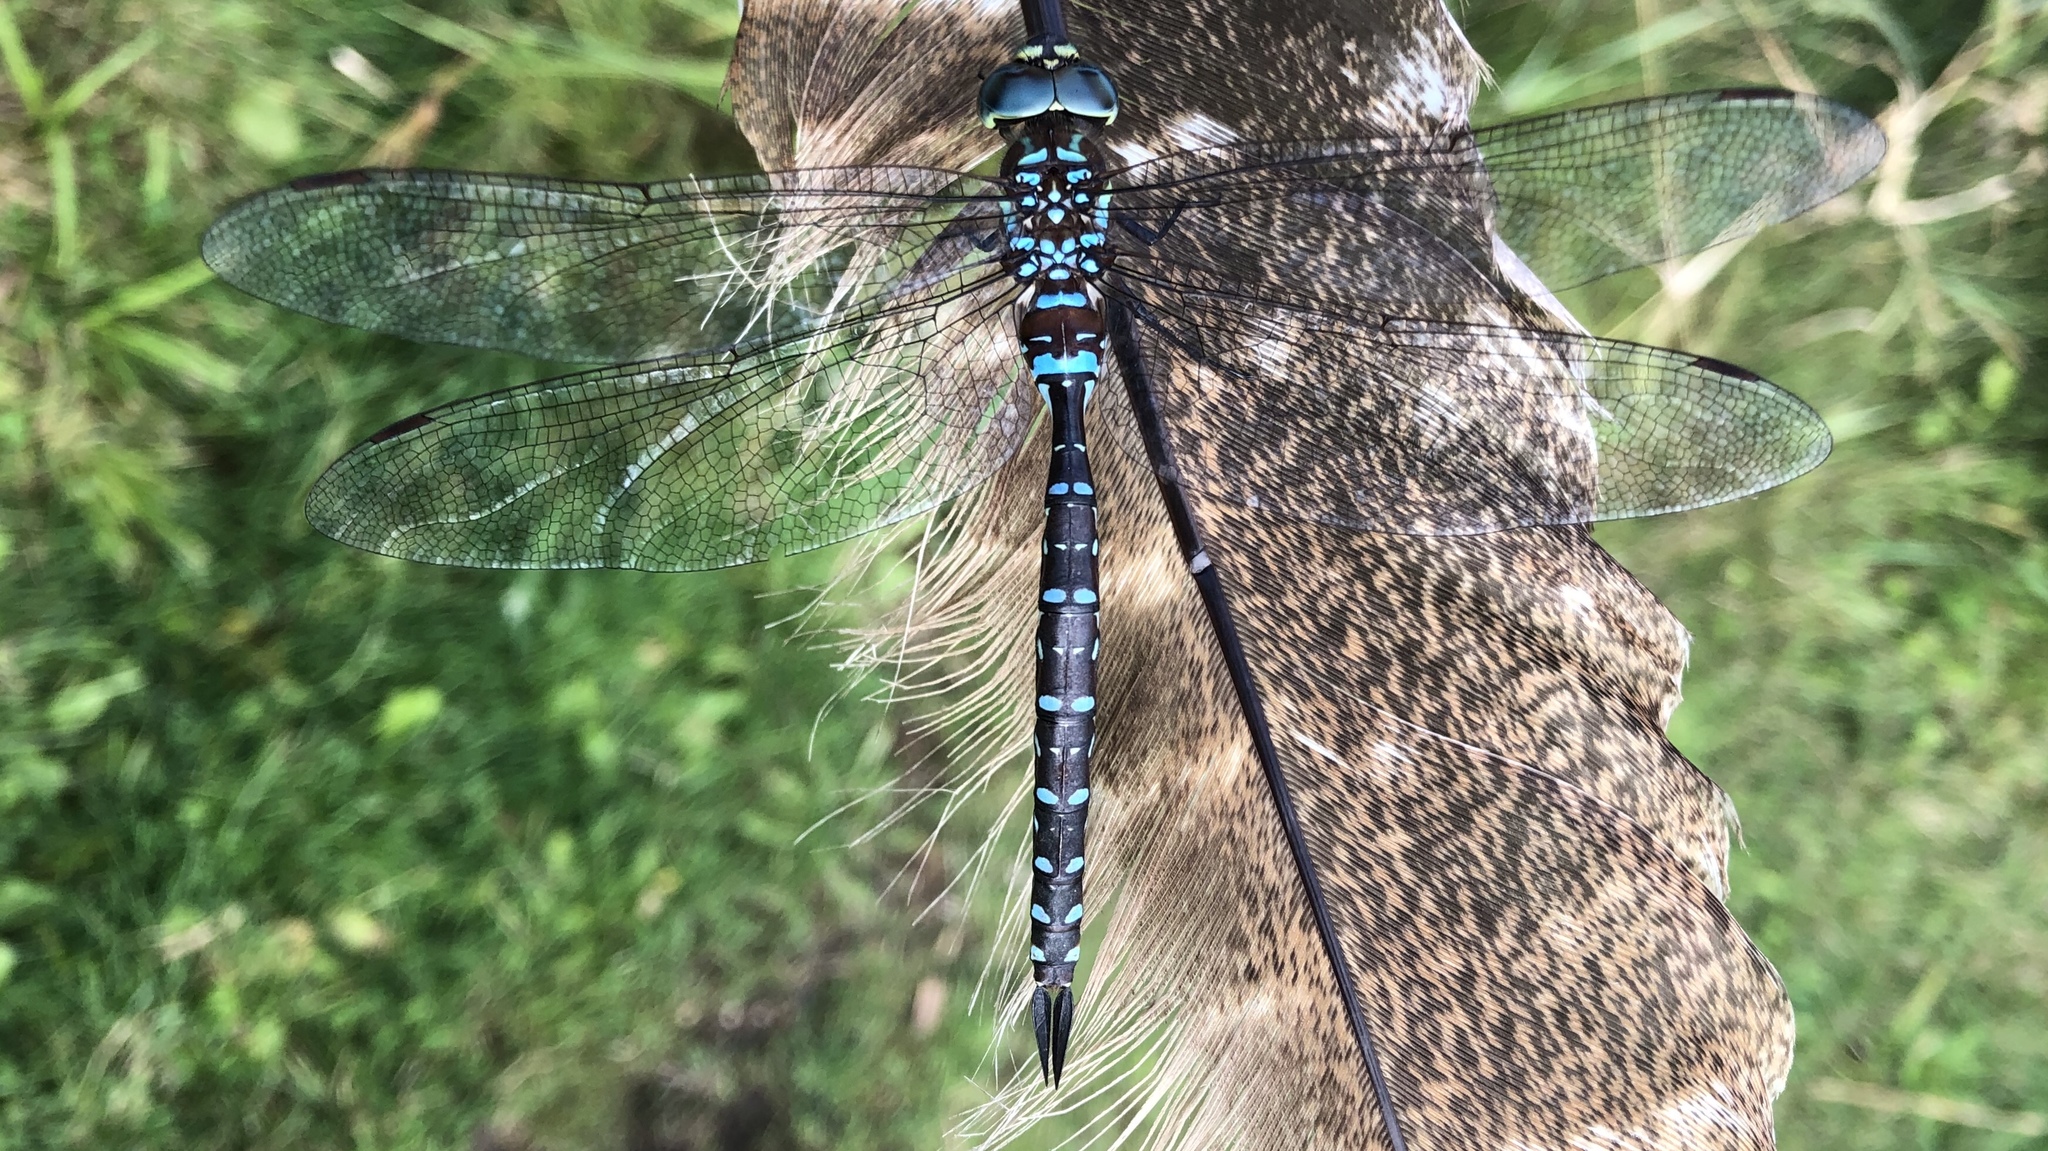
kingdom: Animalia
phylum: Arthropoda
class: Insecta
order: Odonata
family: Aeshnidae
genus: Aeshna
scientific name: Aeshna tuberculifera
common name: Aeschne à tubercules
